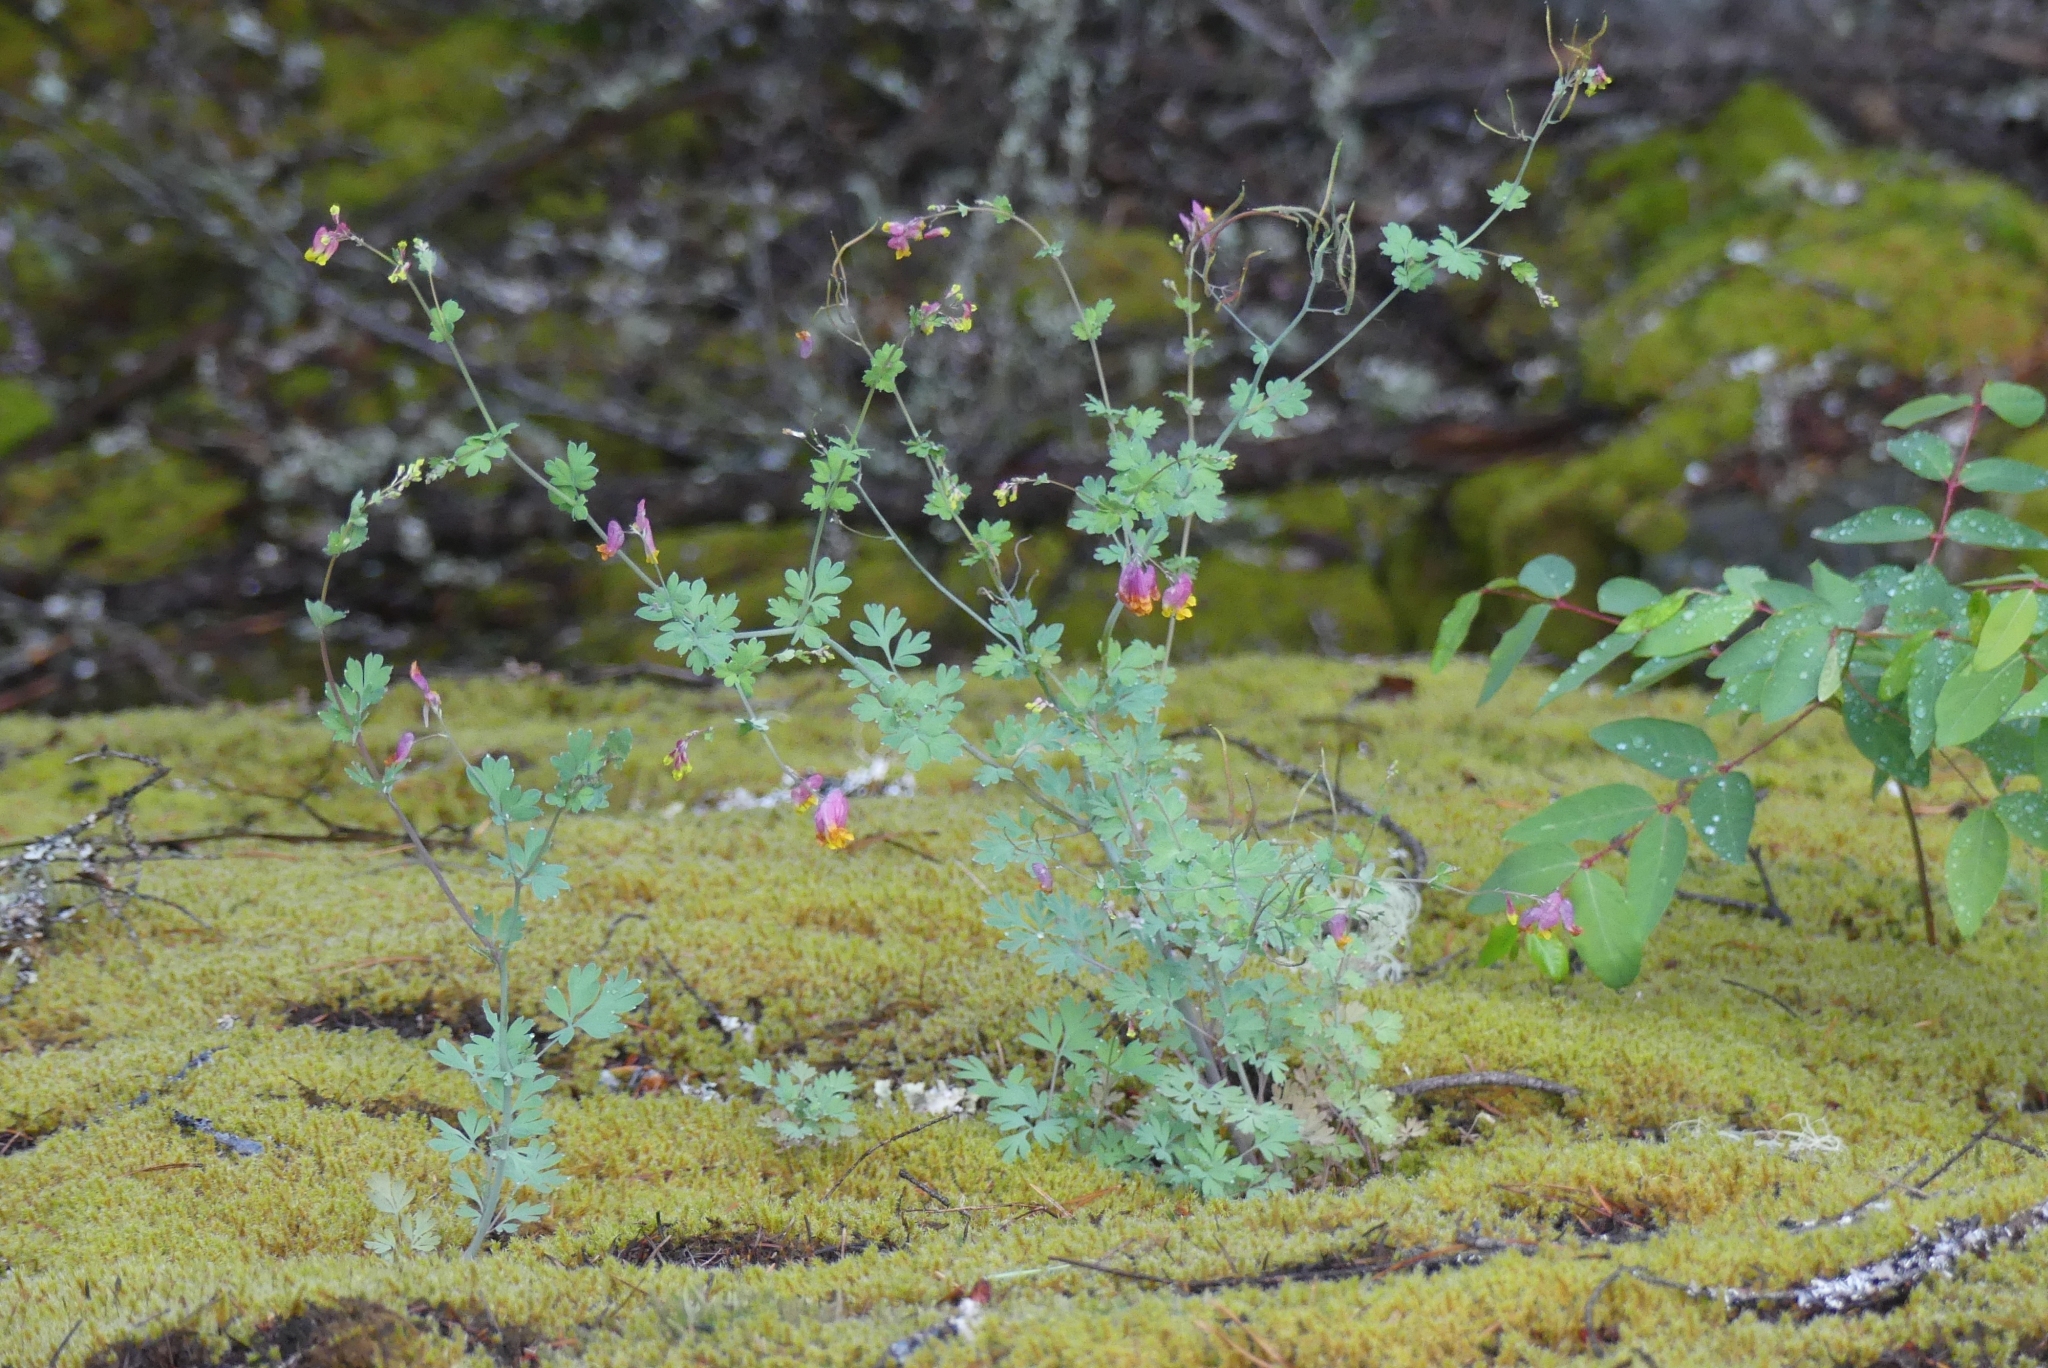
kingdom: Plantae
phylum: Tracheophyta
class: Magnoliopsida
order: Ranunculales
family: Papaveraceae
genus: Capnoides
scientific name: Capnoides sempervirens
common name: Rock harlequin
